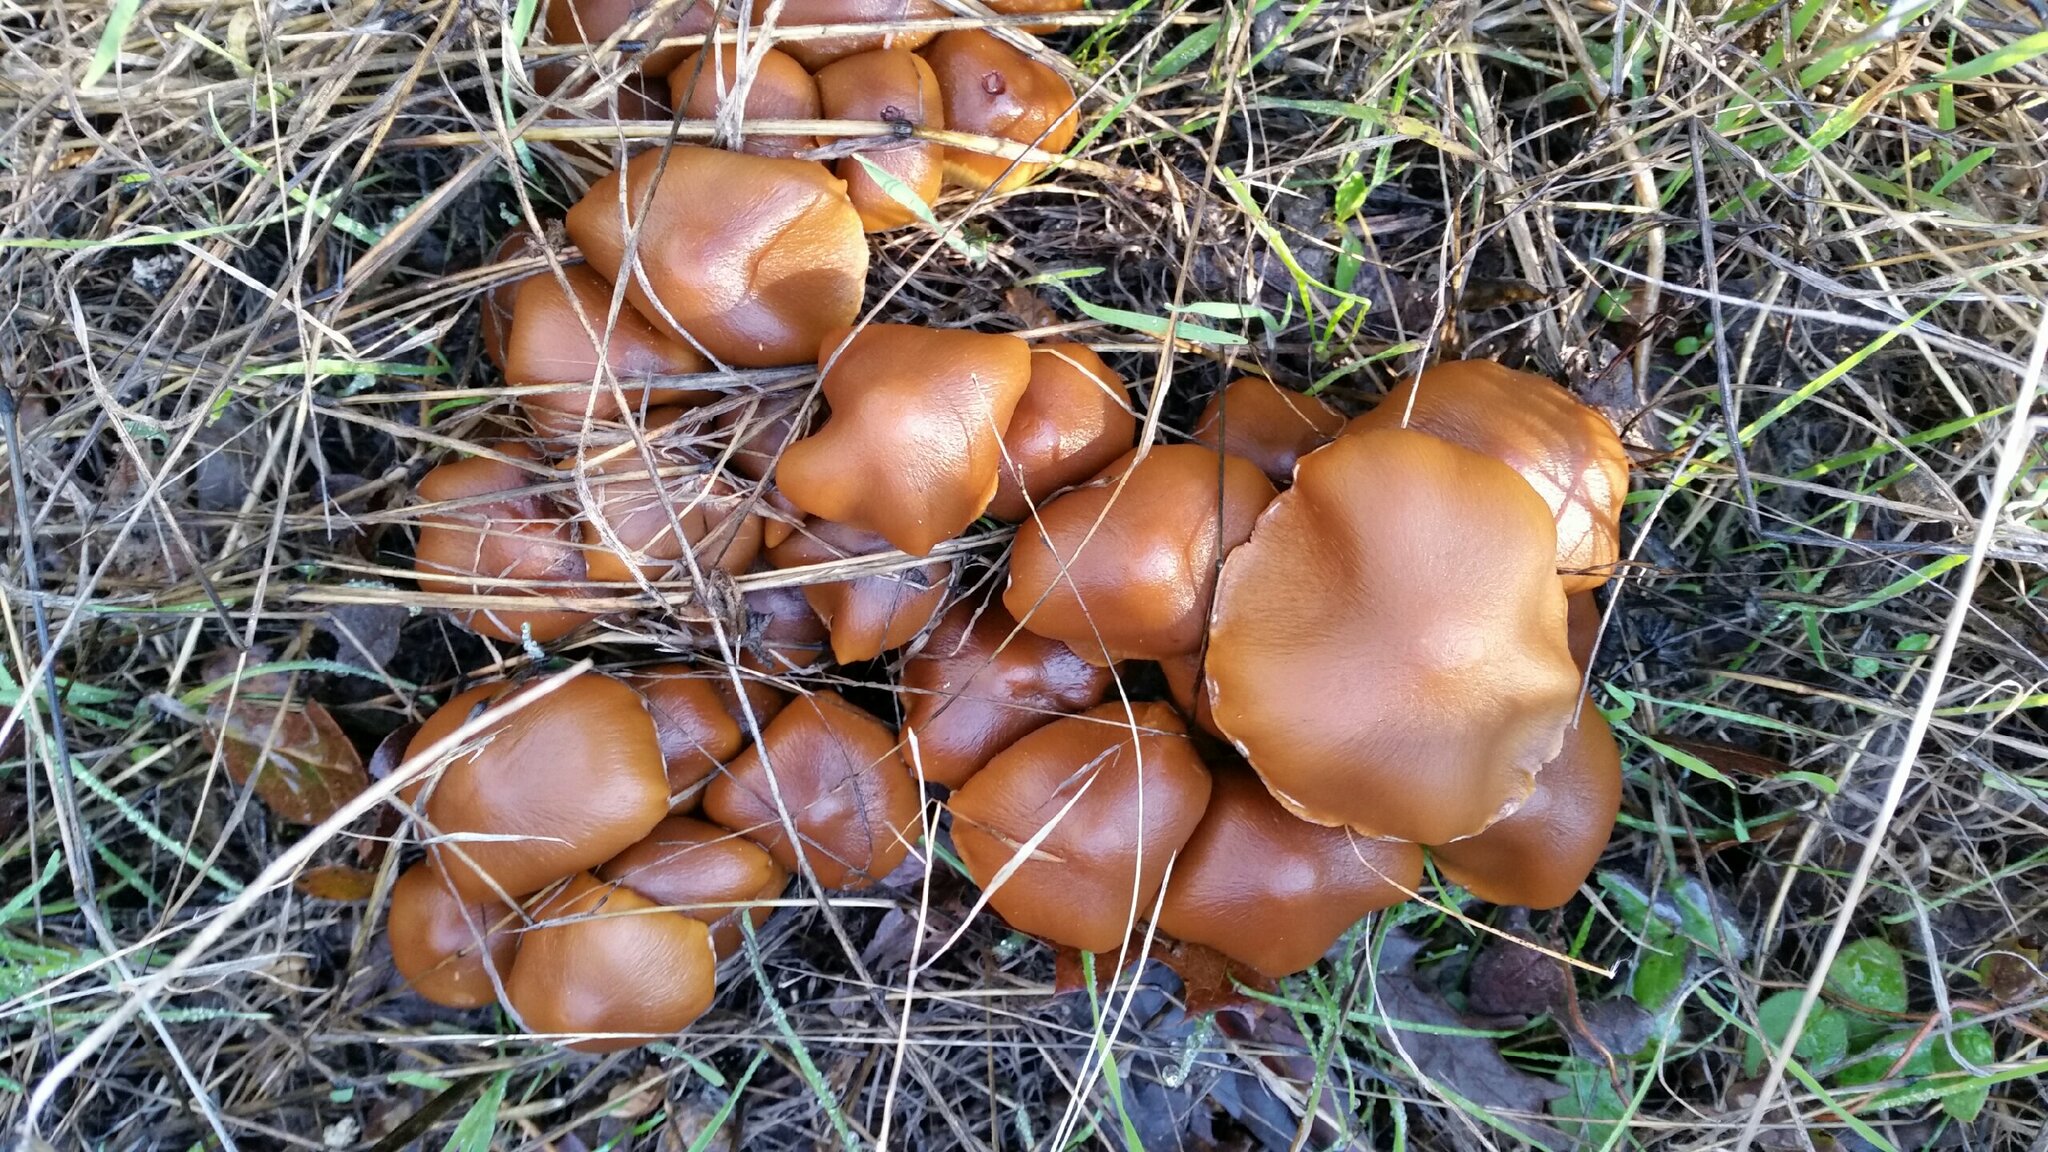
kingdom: Fungi
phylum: Basidiomycota
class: Agaricomycetes
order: Agaricales
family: Psathyrellaceae
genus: Psathyrella
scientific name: Psathyrella piluliformis
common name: Common stump brittlestem
